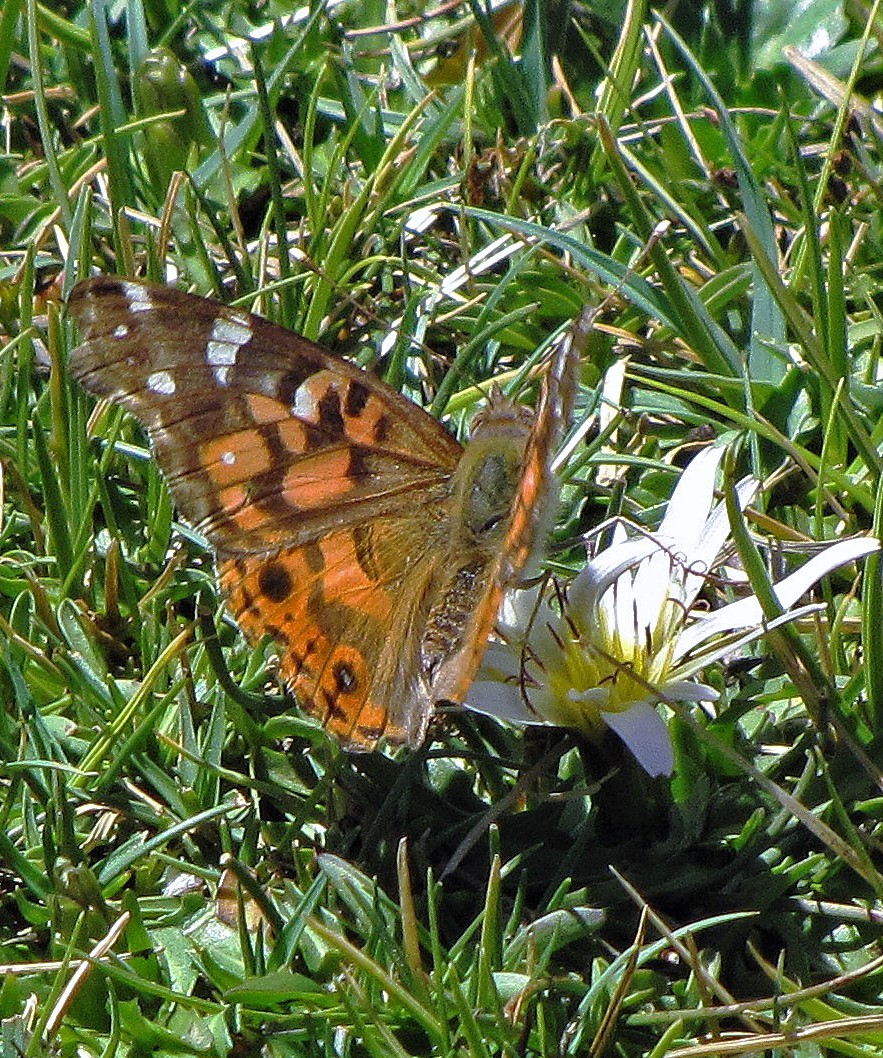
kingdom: Animalia
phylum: Arthropoda
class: Insecta
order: Lepidoptera
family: Nymphalidae
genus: Vanessa
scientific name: Vanessa braziliensis
